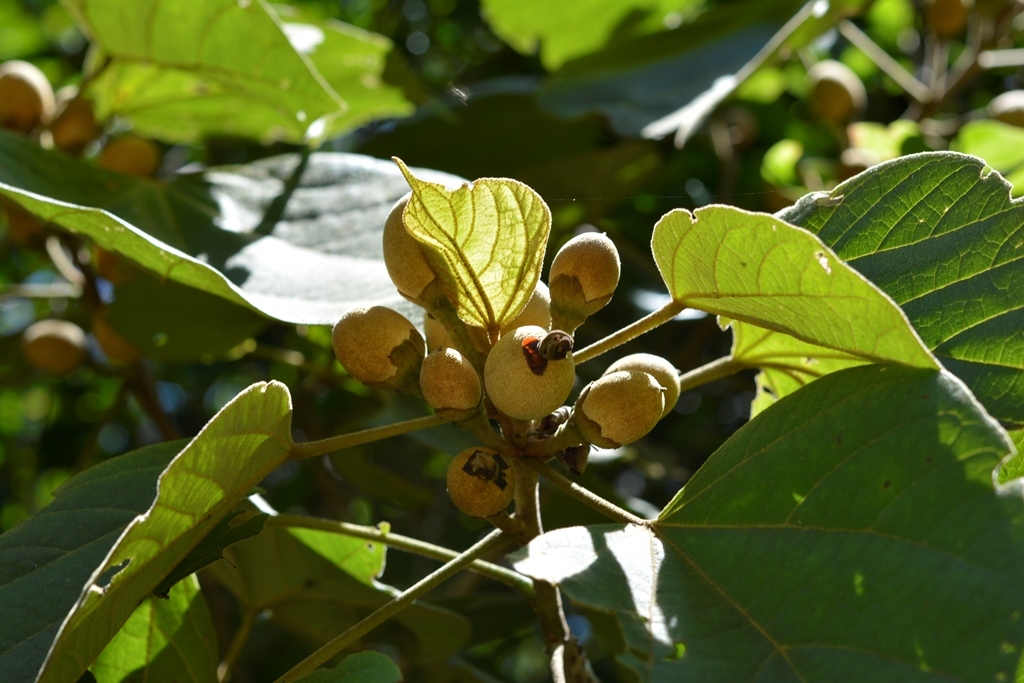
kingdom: Plantae
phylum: Tracheophyta
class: Magnoliopsida
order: Malvales
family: Malvaceae
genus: Hampea
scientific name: Hampea mexicana
